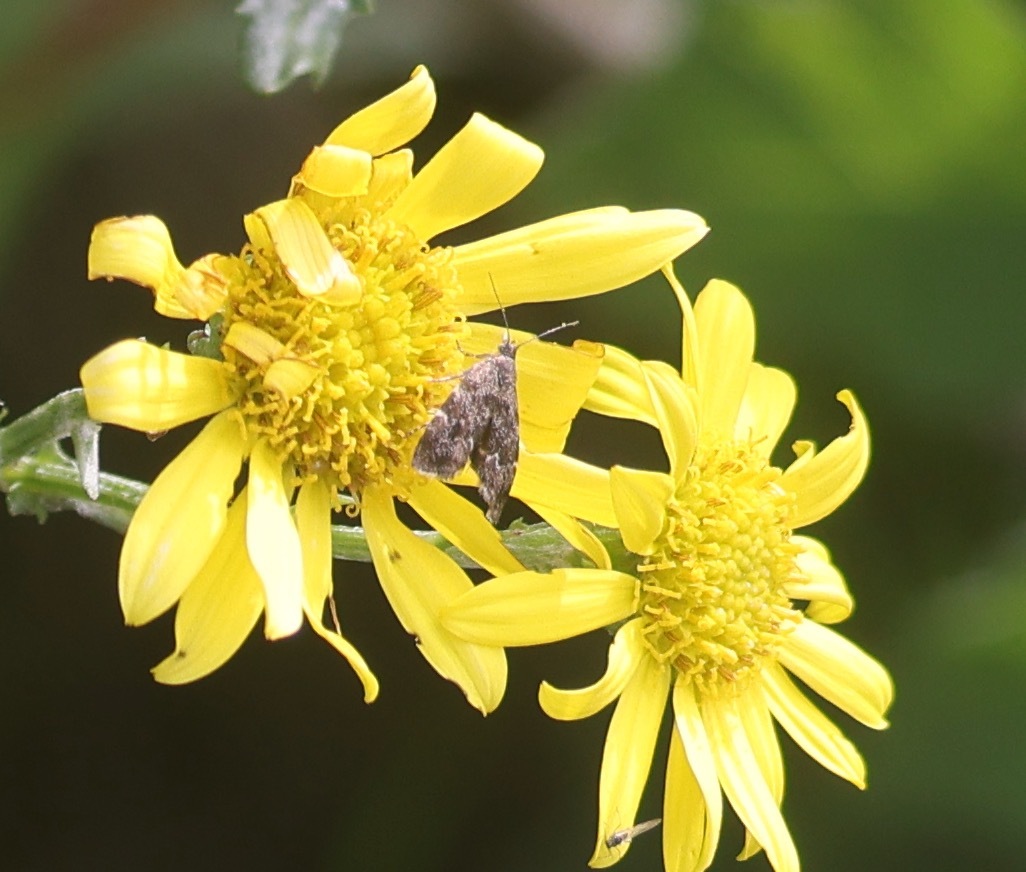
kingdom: Animalia
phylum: Arthropoda
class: Insecta
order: Lepidoptera
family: Choreutidae
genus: Anthophila
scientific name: Anthophila fabriciana
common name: Nettle-tap
